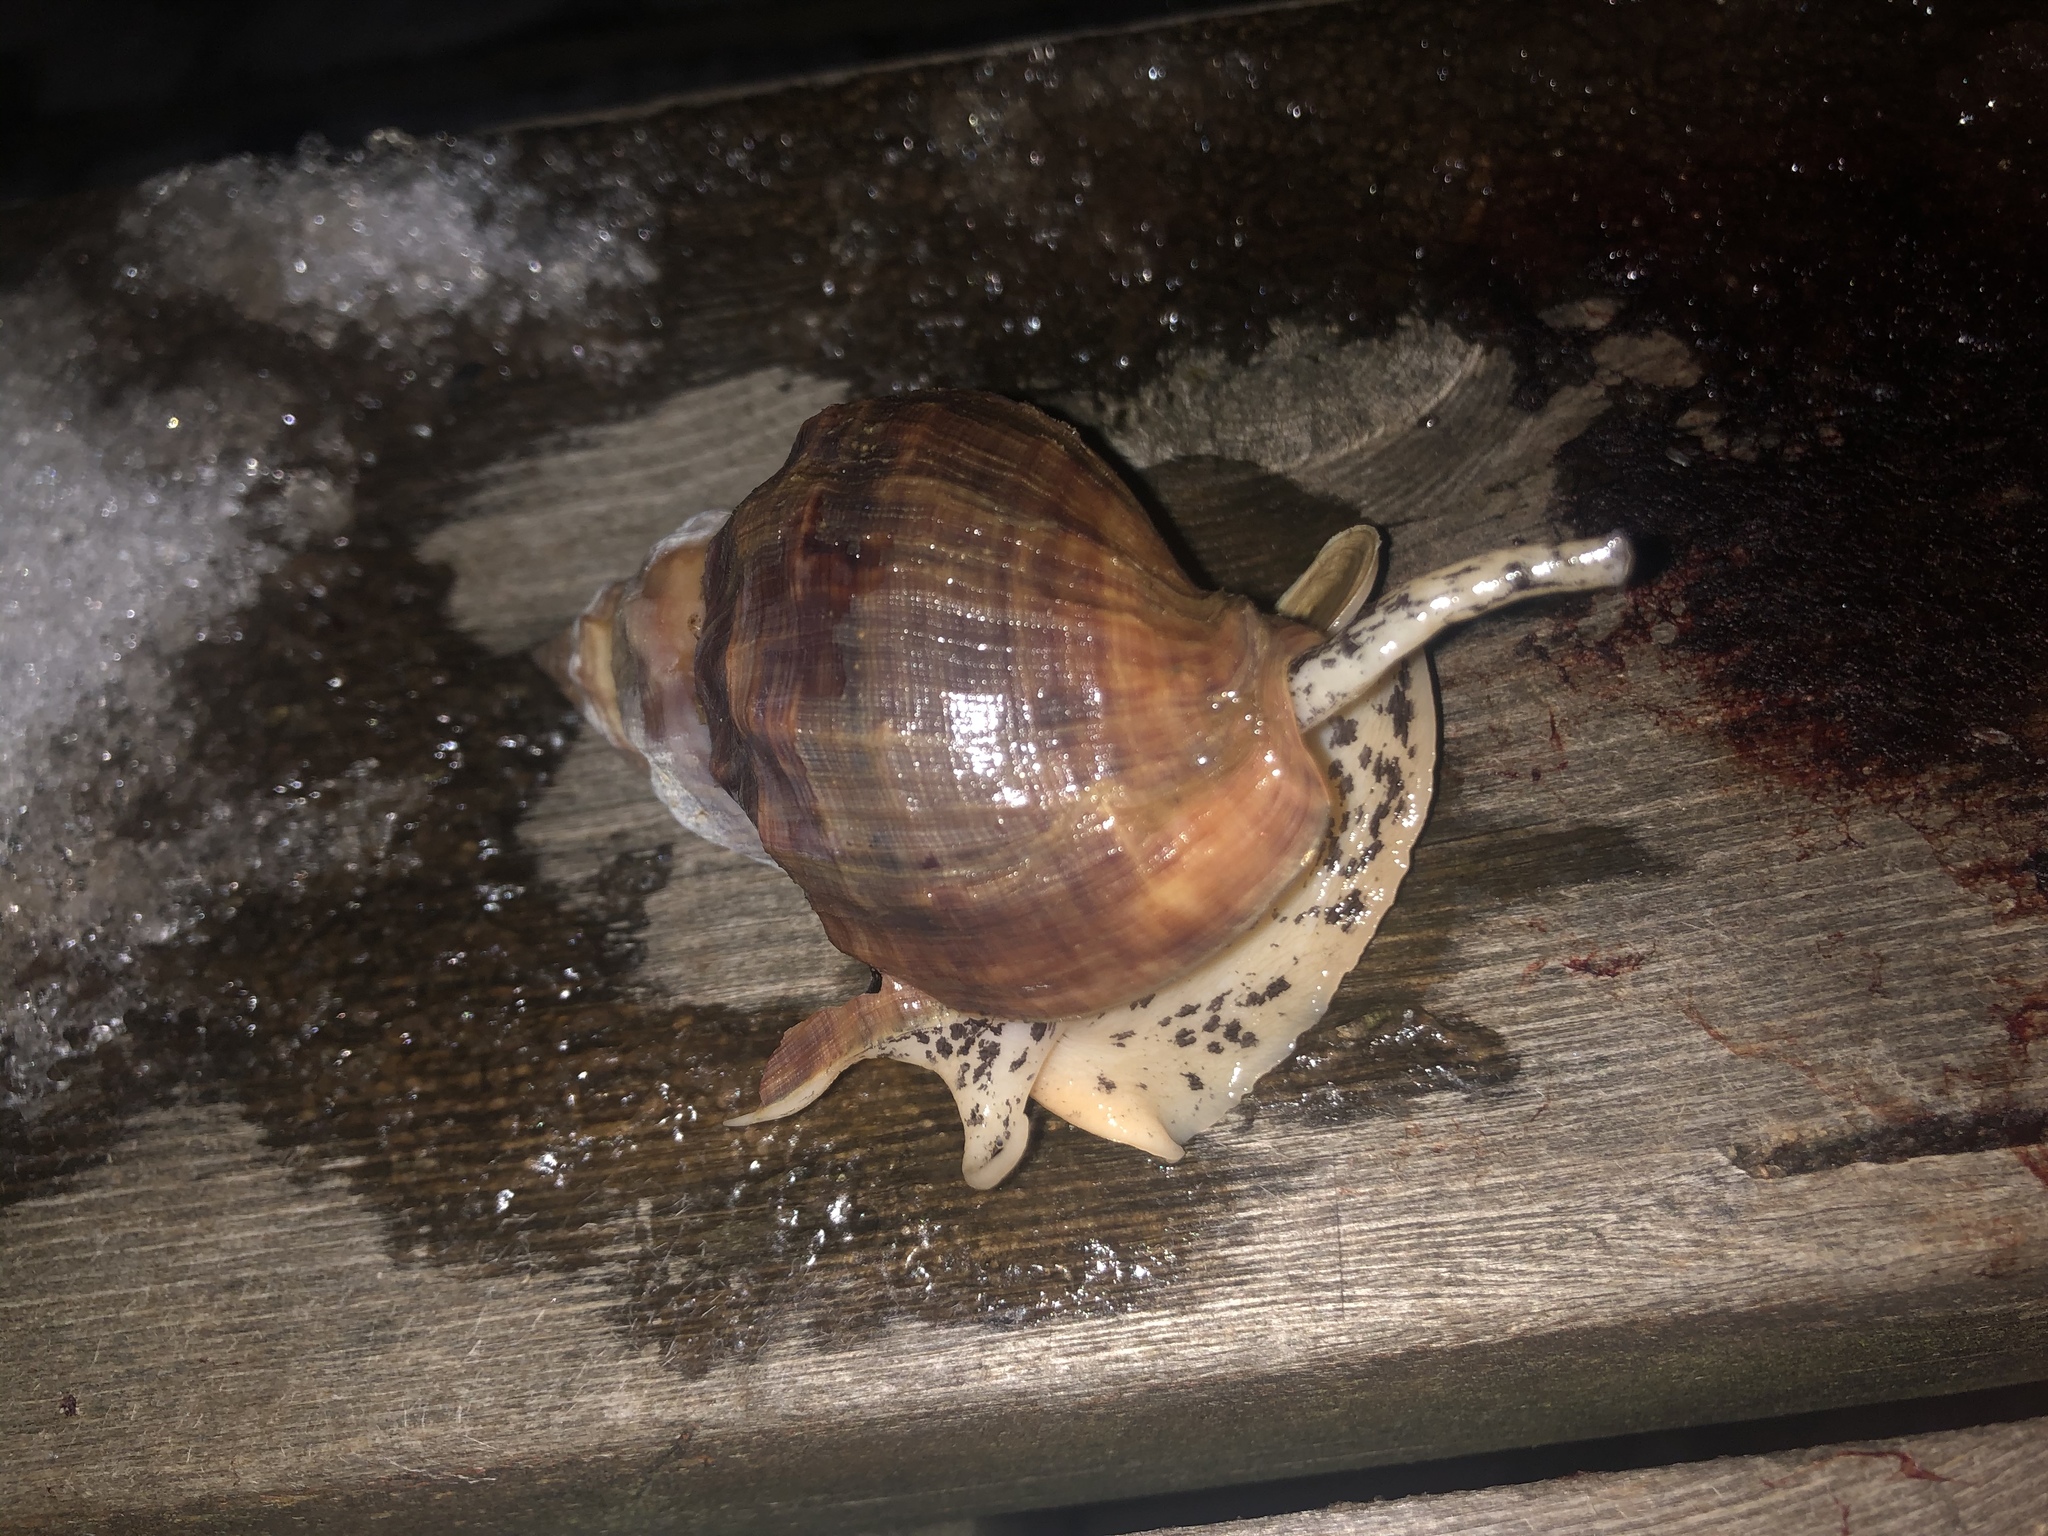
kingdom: Animalia
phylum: Mollusca
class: Gastropoda
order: Neogastropoda
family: Buccinidae
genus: Buccinum
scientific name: Buccinum undatum
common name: Common whelk
